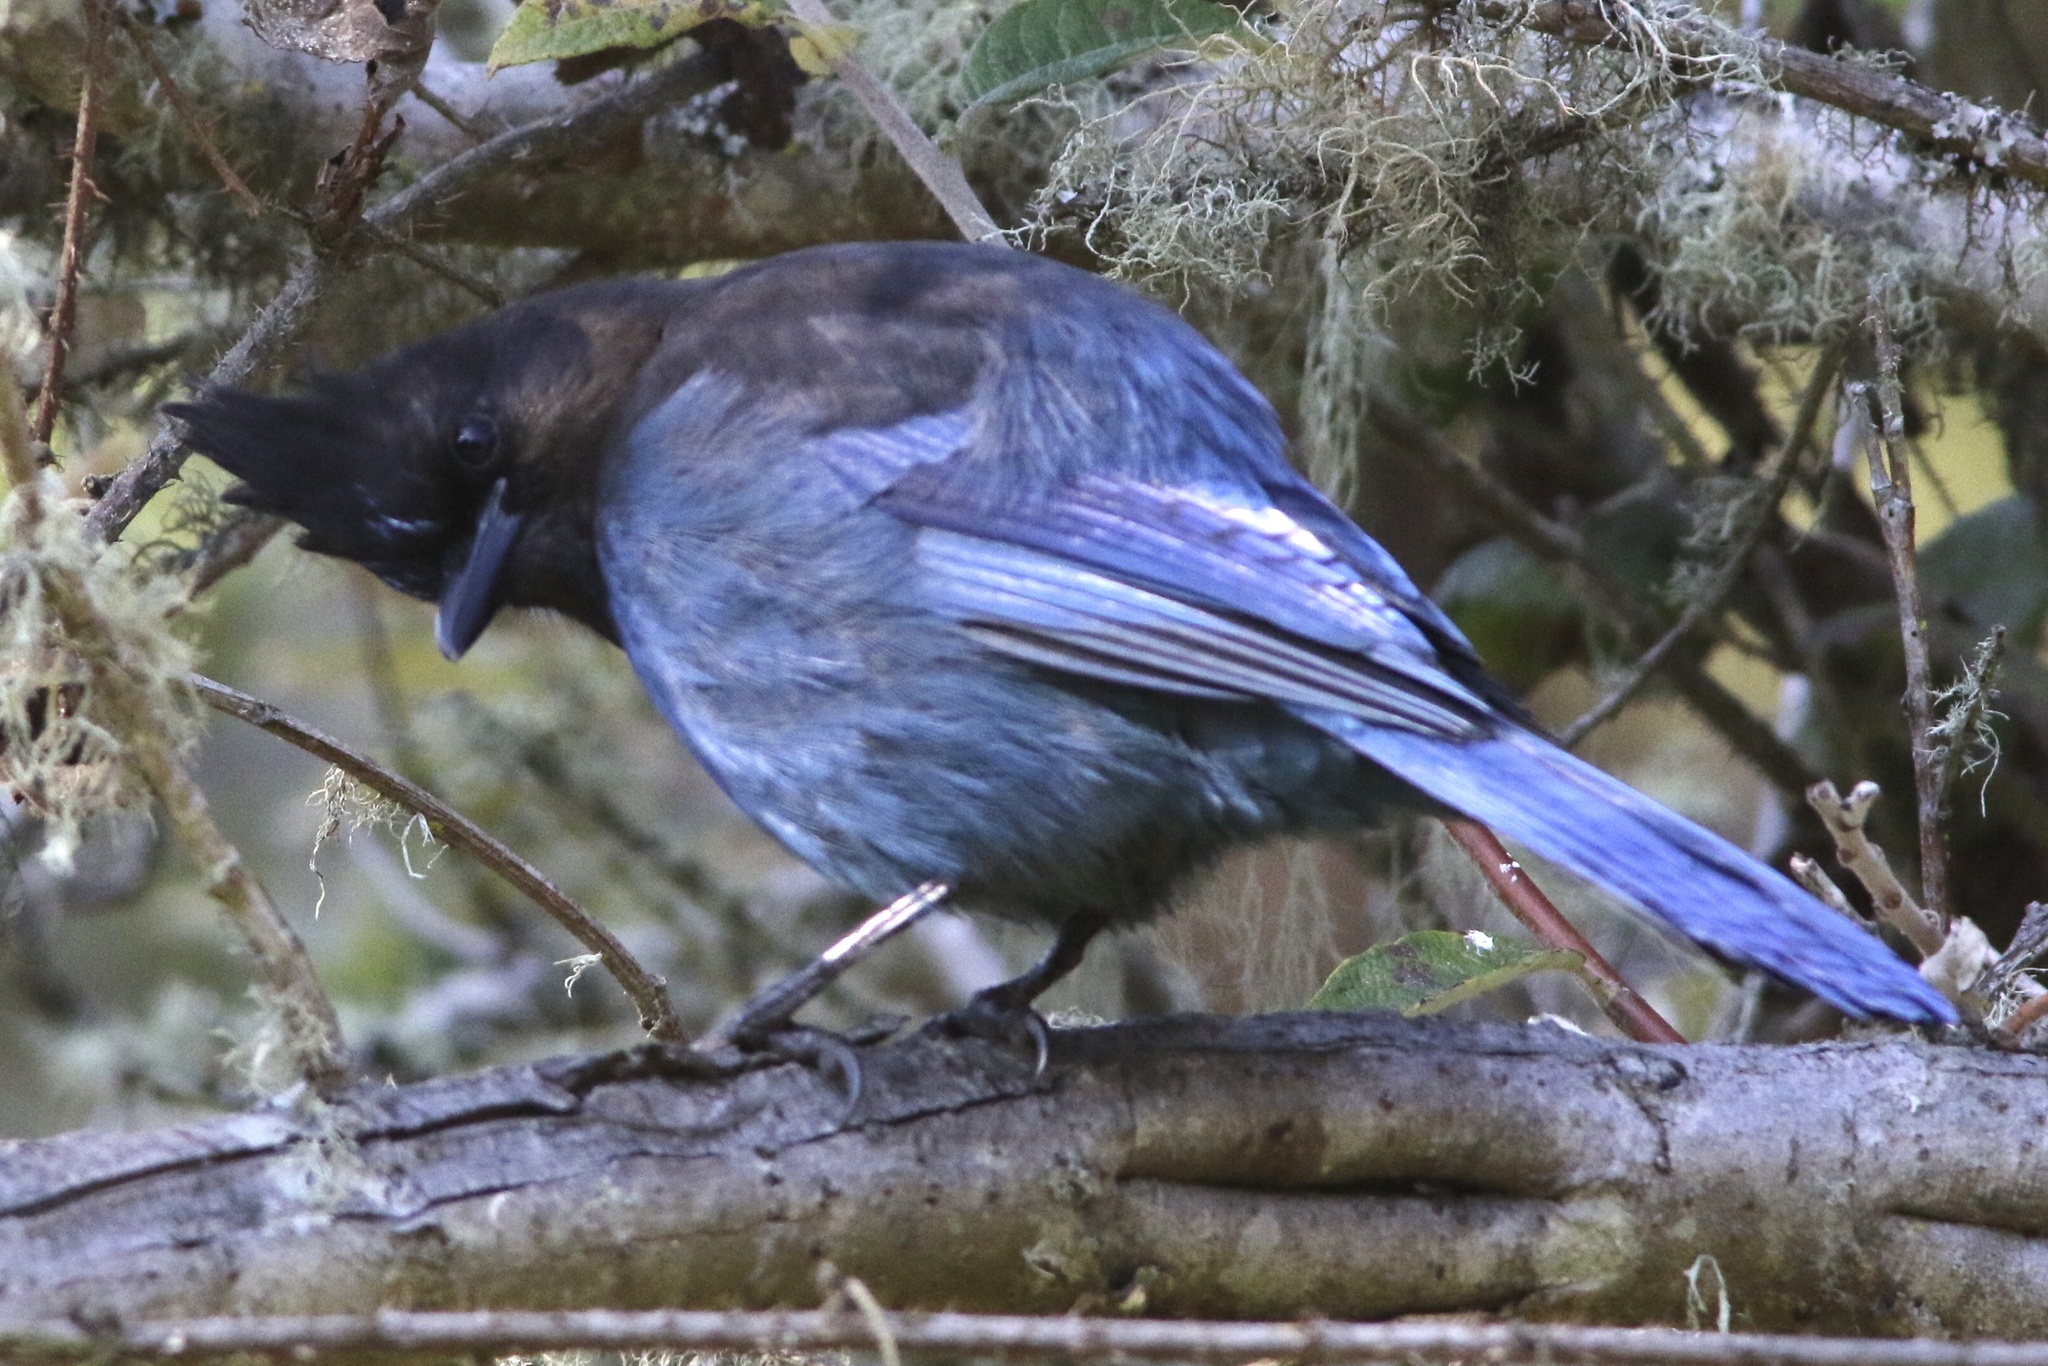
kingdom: Animalia
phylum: Chordata
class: Aves
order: Passeriformes
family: Corvidae
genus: Cyanocitta
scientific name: Cyanocitta stelleri
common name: Steller's jay
